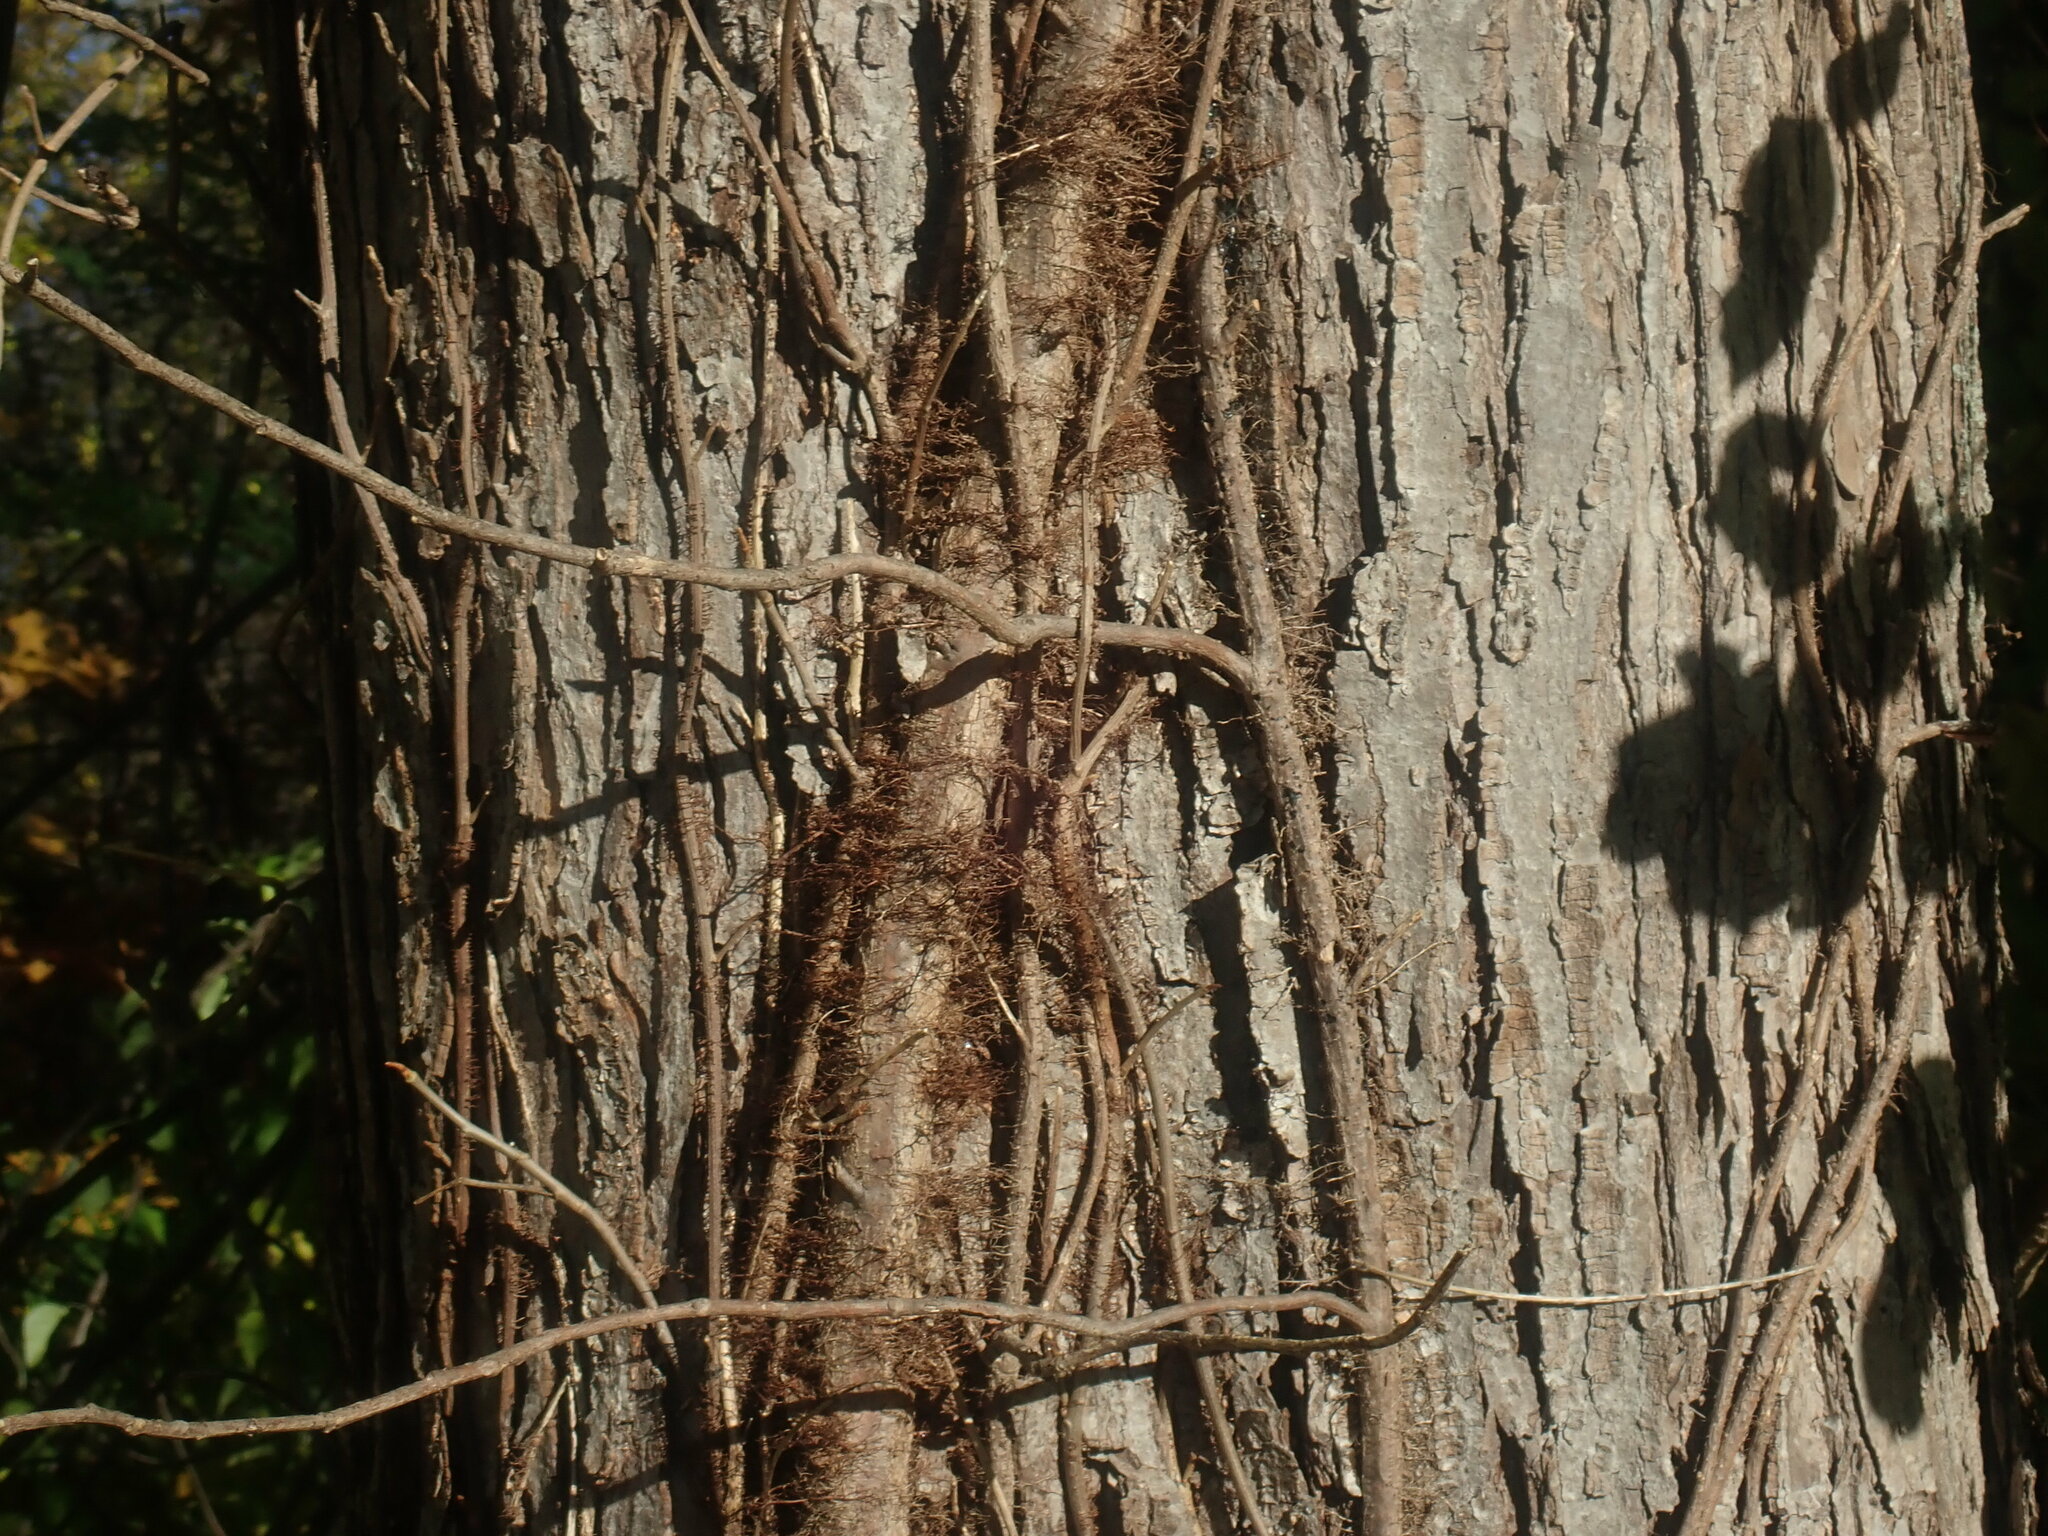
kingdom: Plantae
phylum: Tracheophyta
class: Magnoliopsida
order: Sapindales
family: Anacardiaceae
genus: Toxicodendron
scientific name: Toxicodendron radicans
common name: Poison ivy
